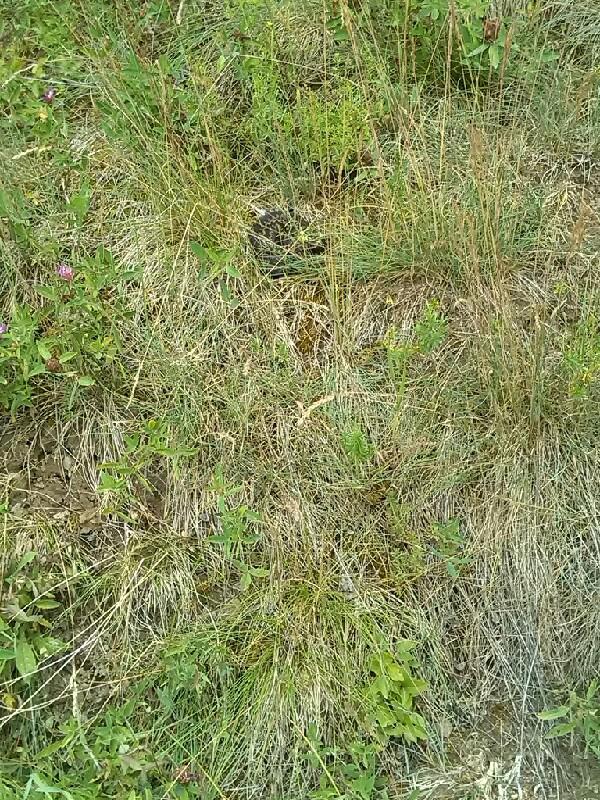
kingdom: Animalia
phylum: Chordata
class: Squamata
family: Viperidae
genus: Vipera
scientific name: Vipera berus
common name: Adder
